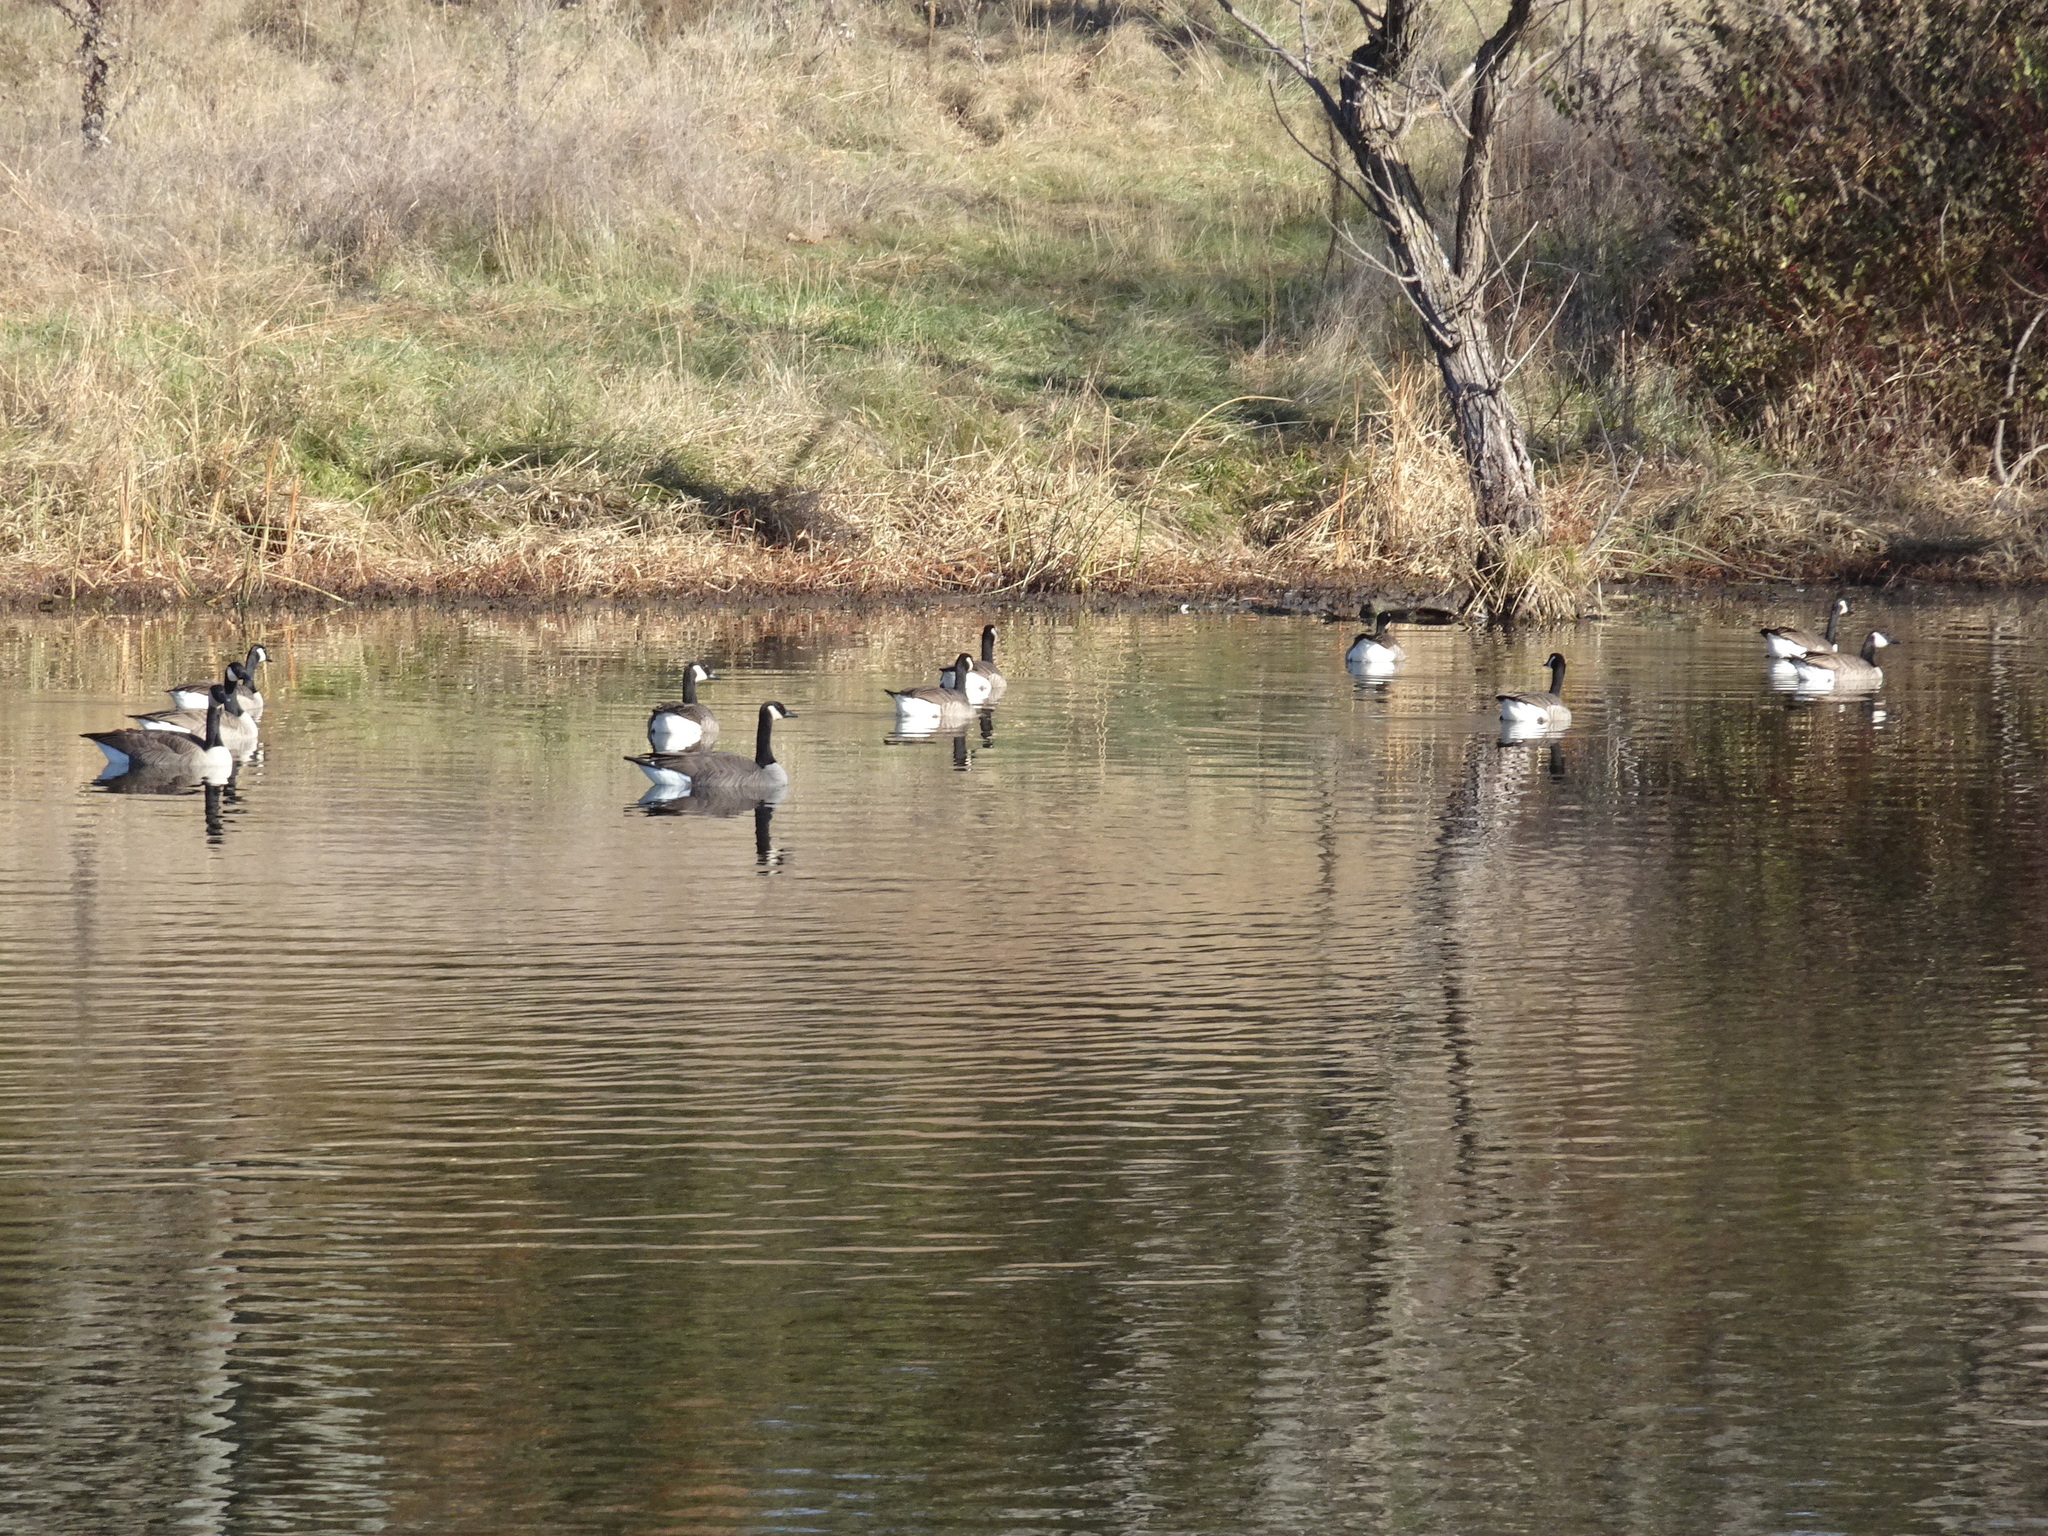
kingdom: Animalia
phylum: Chordata
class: Aves
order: Anseriformes
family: Anatidae
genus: Branta
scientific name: Branta canadensis
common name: Canada goose
